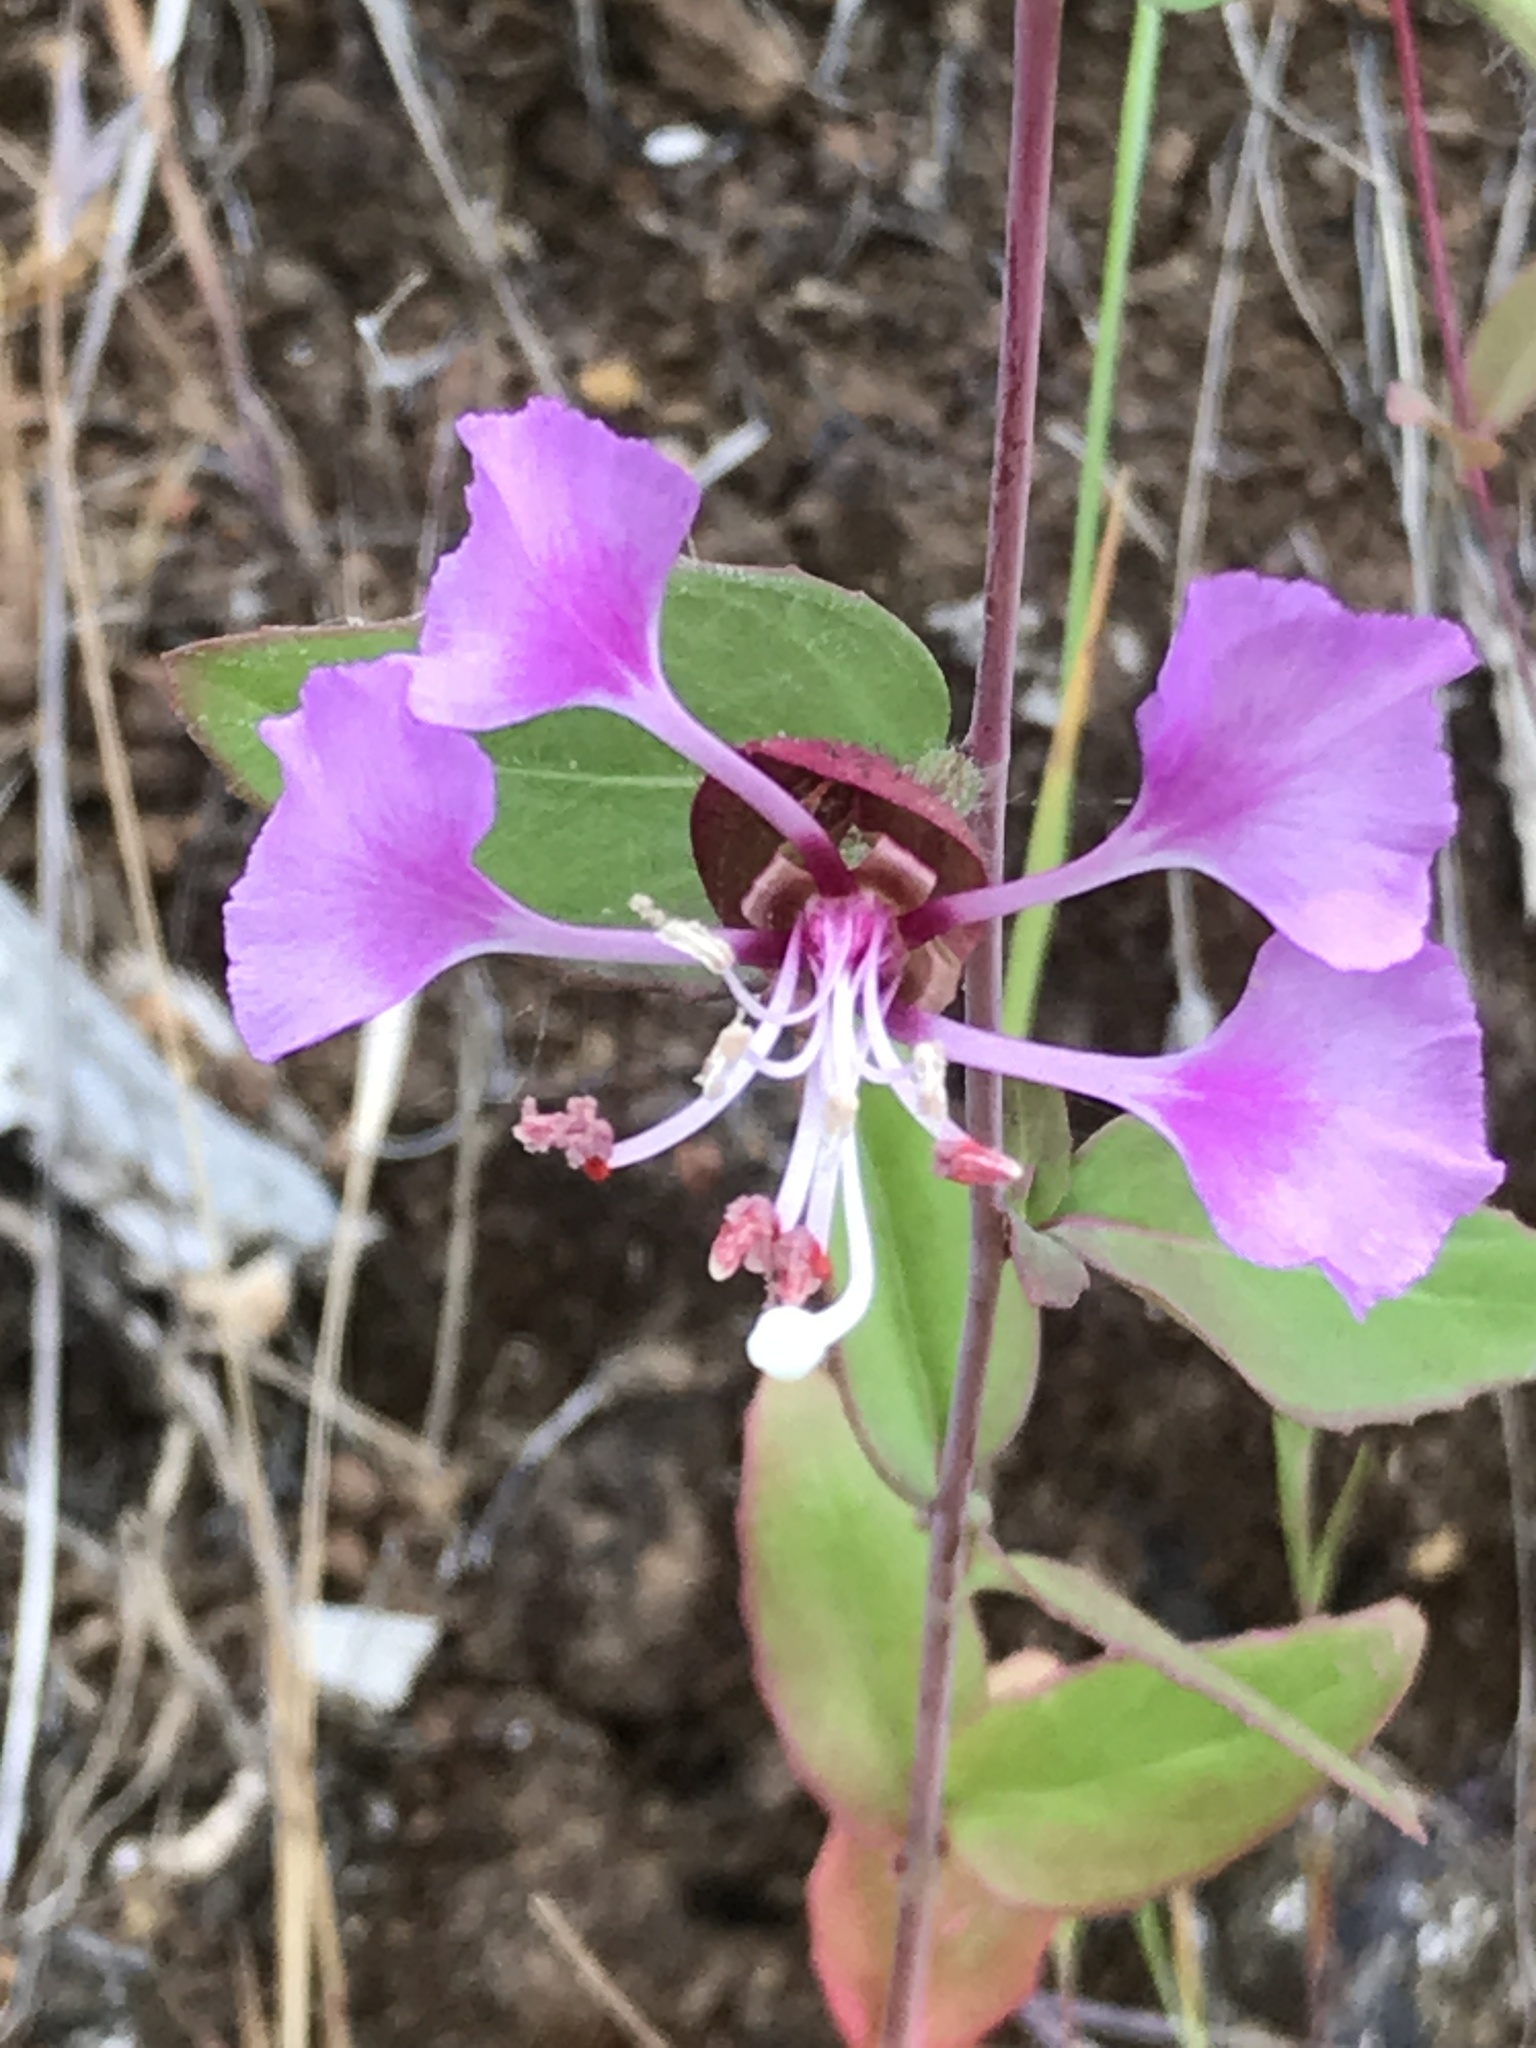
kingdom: Plantae
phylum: Tracheophyta
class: Magnoliopsida
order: Myrtales
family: Onagraceae
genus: Clarkia
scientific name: Clarkia unguiculata
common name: Clarkia
